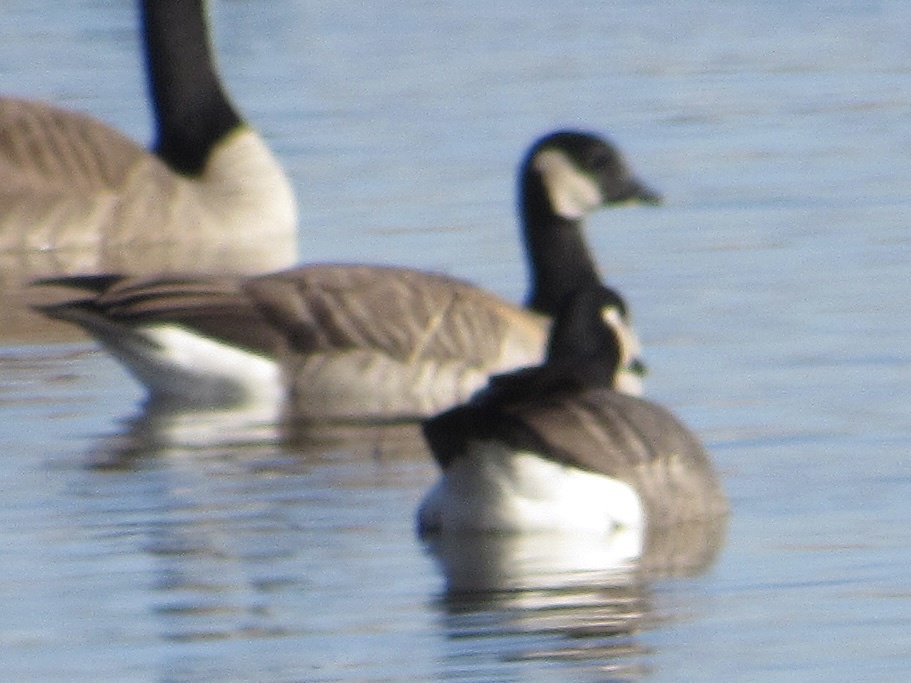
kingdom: Animalia
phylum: Chordata
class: Aves
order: Anseriformes
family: Anatidae
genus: Branta
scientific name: Branta hutchinsii
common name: Cackling goose
